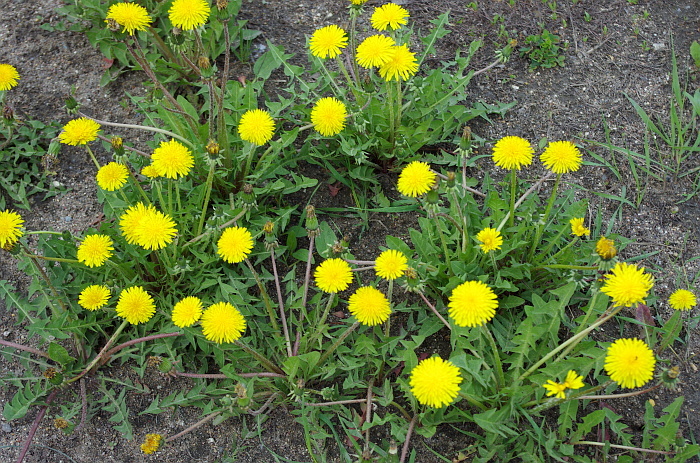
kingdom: Plantae
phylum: Tracheophyta
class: Magnoliopsida
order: Asterales
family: Asteraceae
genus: Taraxacum
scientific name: Taraxacum officinale
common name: Common dandelion
